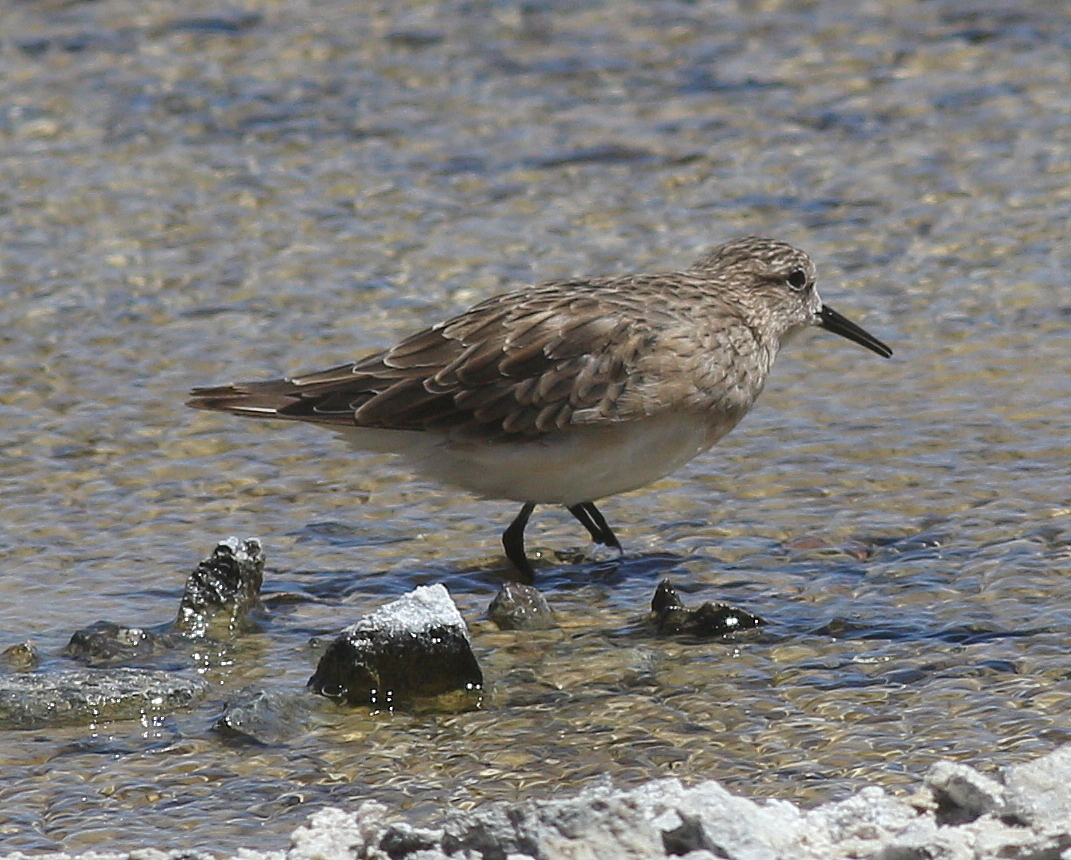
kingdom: Animalia
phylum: Chordata
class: Aves
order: Charadriiformes
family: Scolopacidae
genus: Calidris
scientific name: Calidris bairdii
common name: Baird's sandpiper
